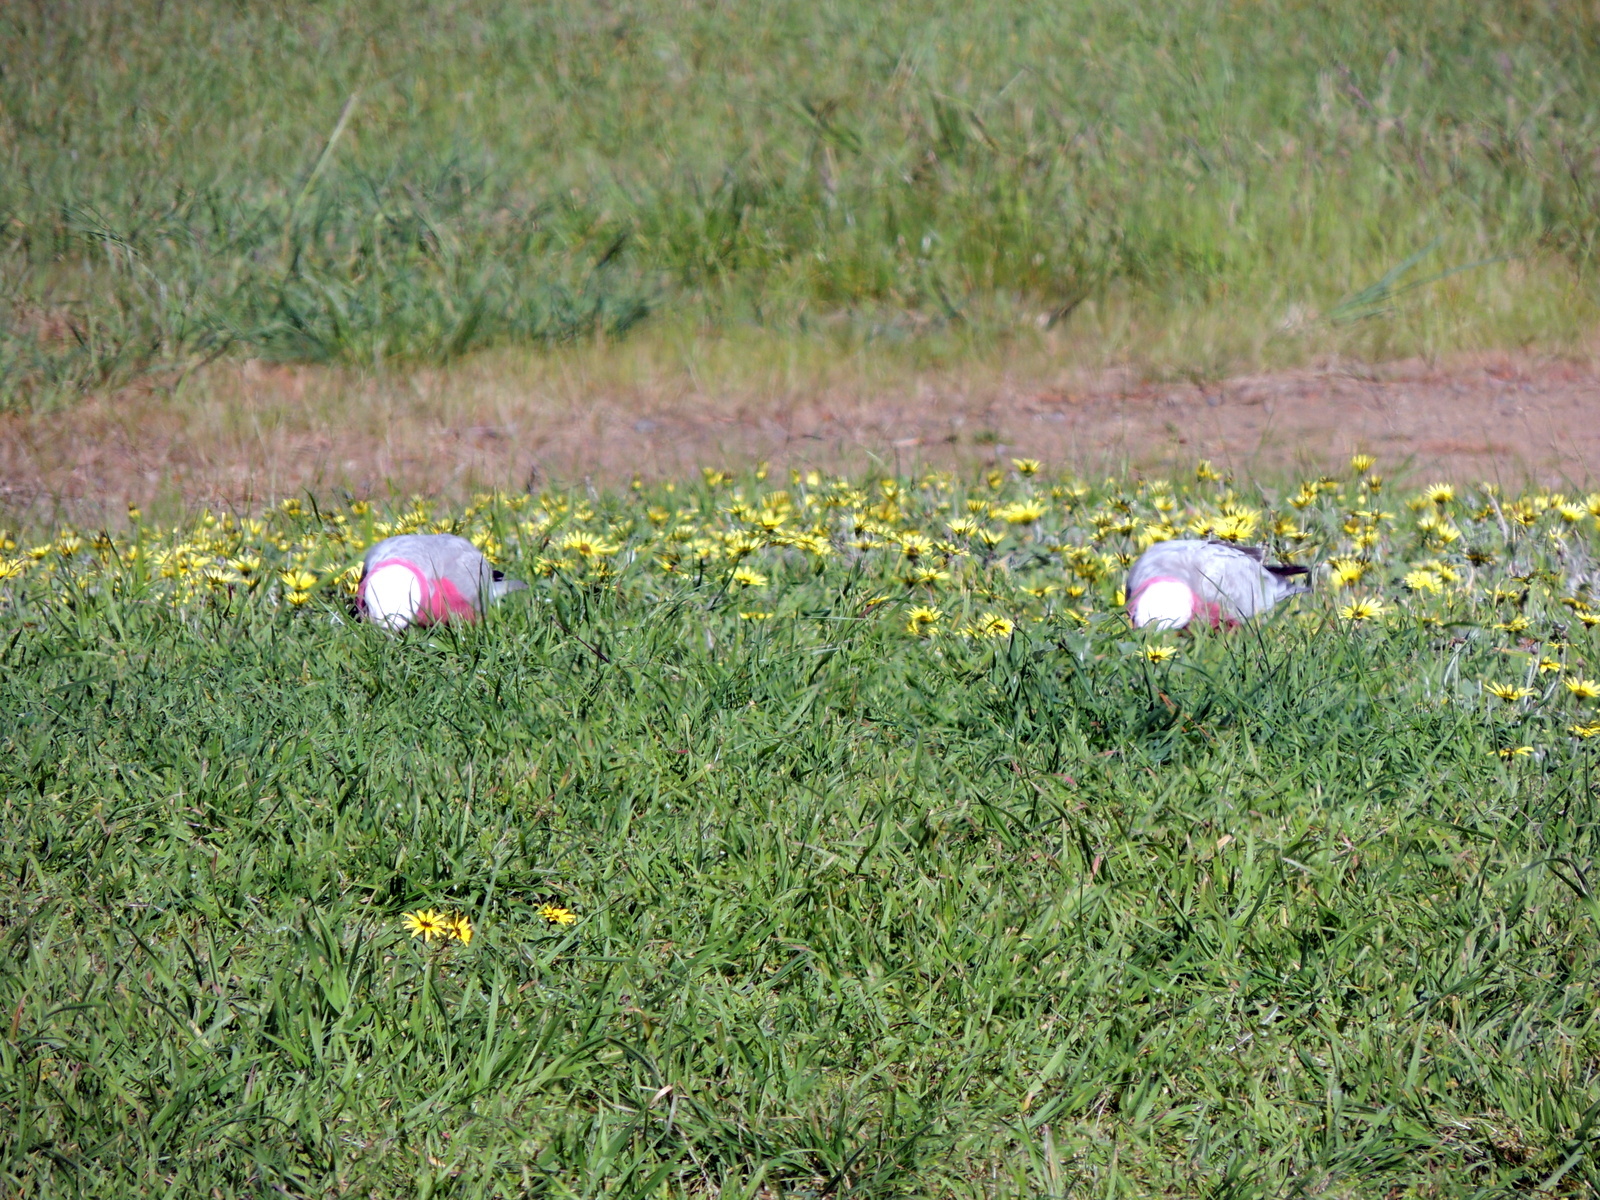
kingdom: Animalia
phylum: Chordata
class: Aves
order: Psittaciformes
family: Psittacidae
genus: Eolophus
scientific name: Eolophus roseicapilla
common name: Galah
